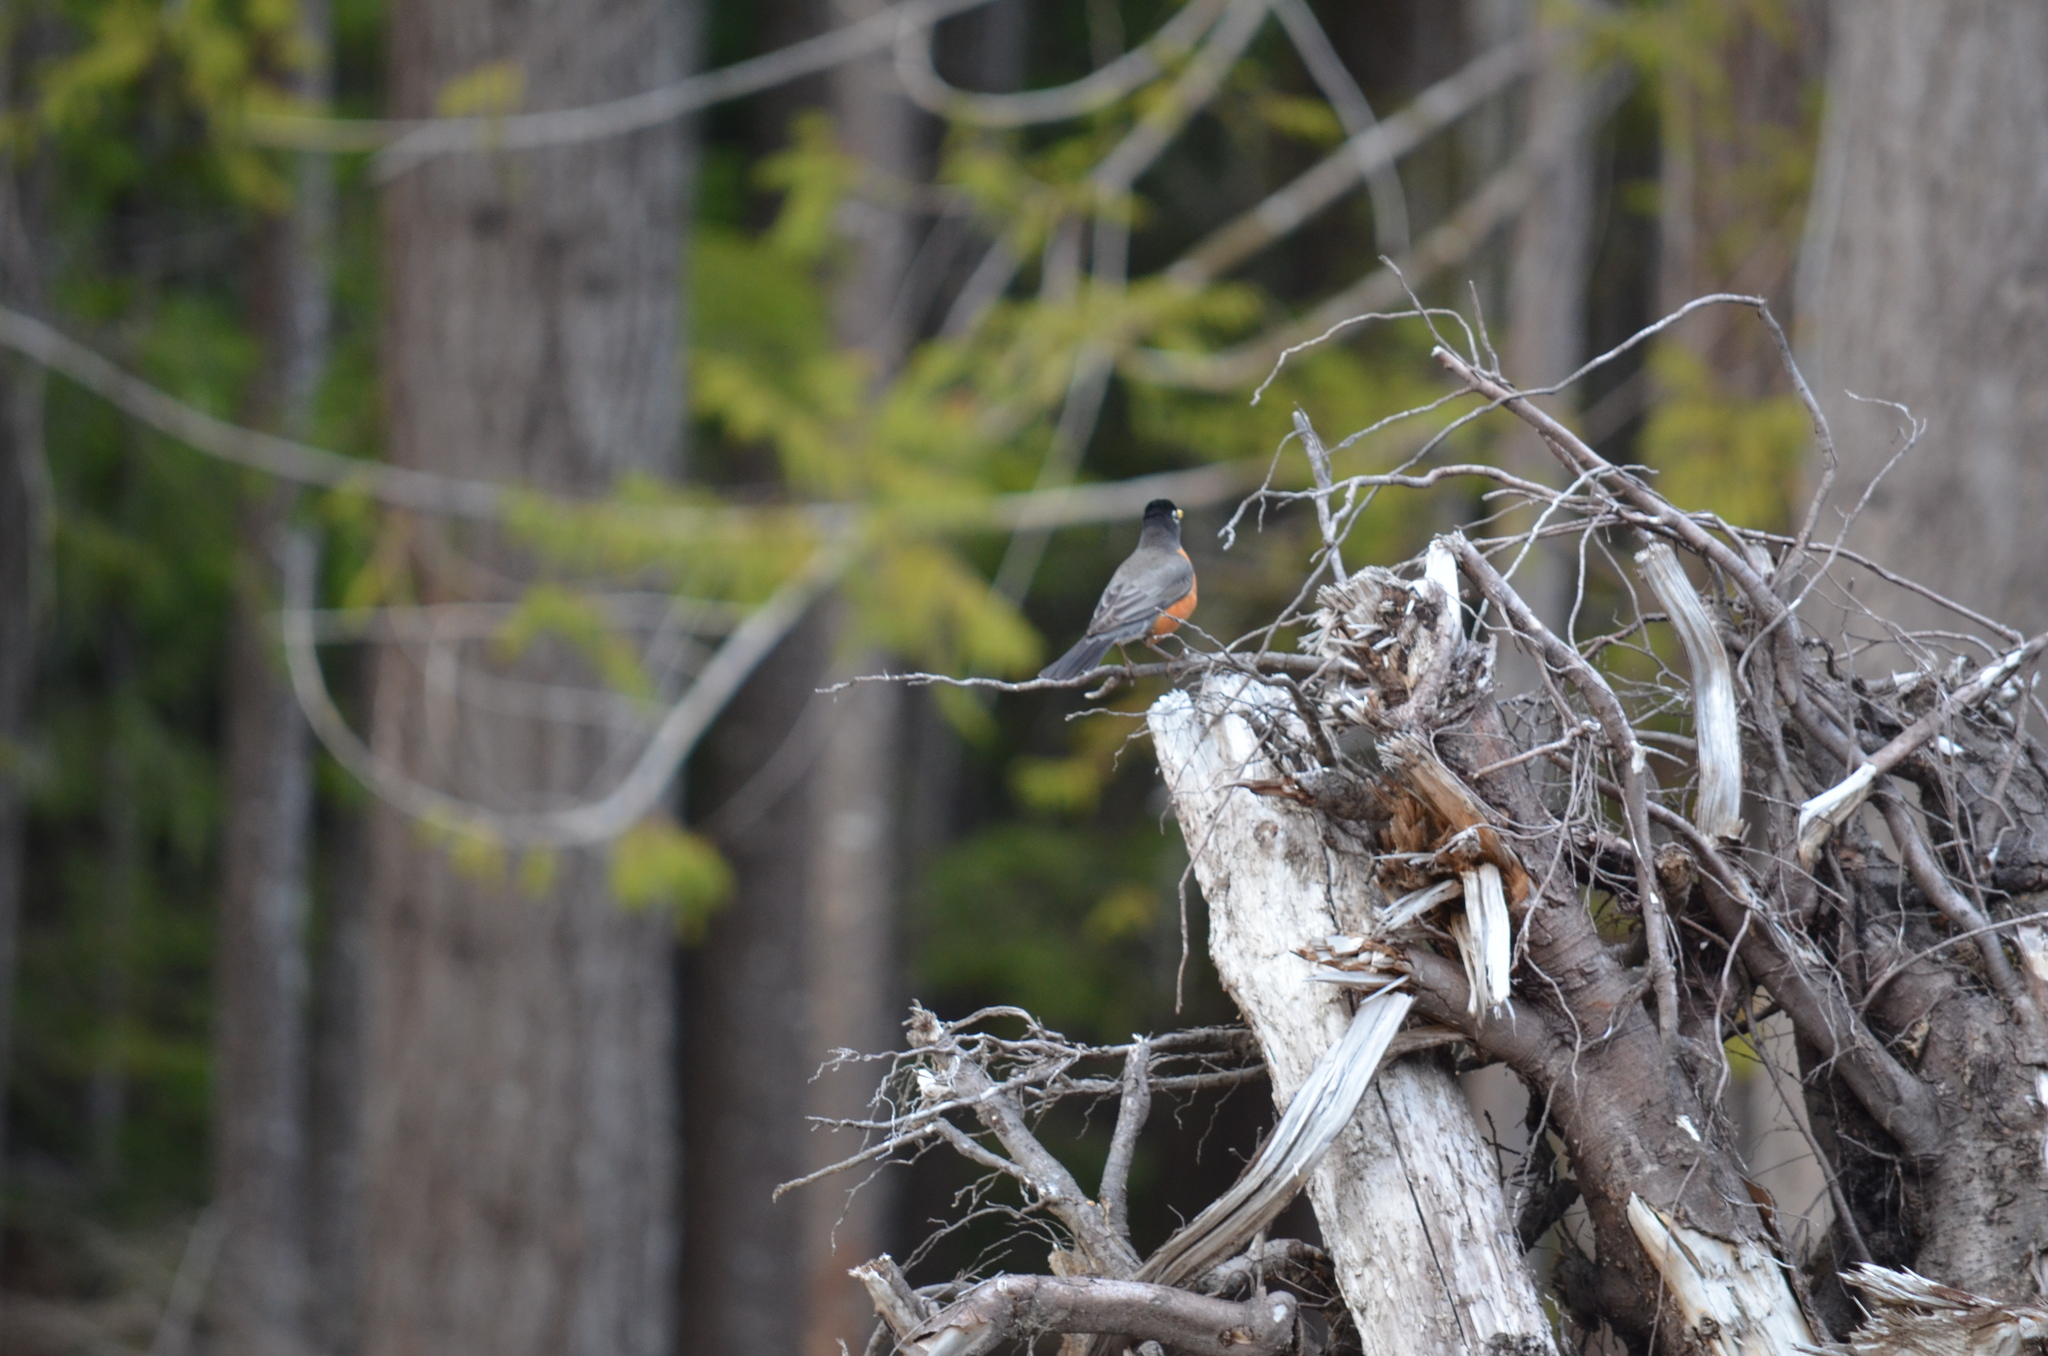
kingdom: Animalia
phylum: Chordata
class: Aves
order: Passeriformes
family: Turdidae
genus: Turdus
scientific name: Turdus migratorius
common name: American robin
